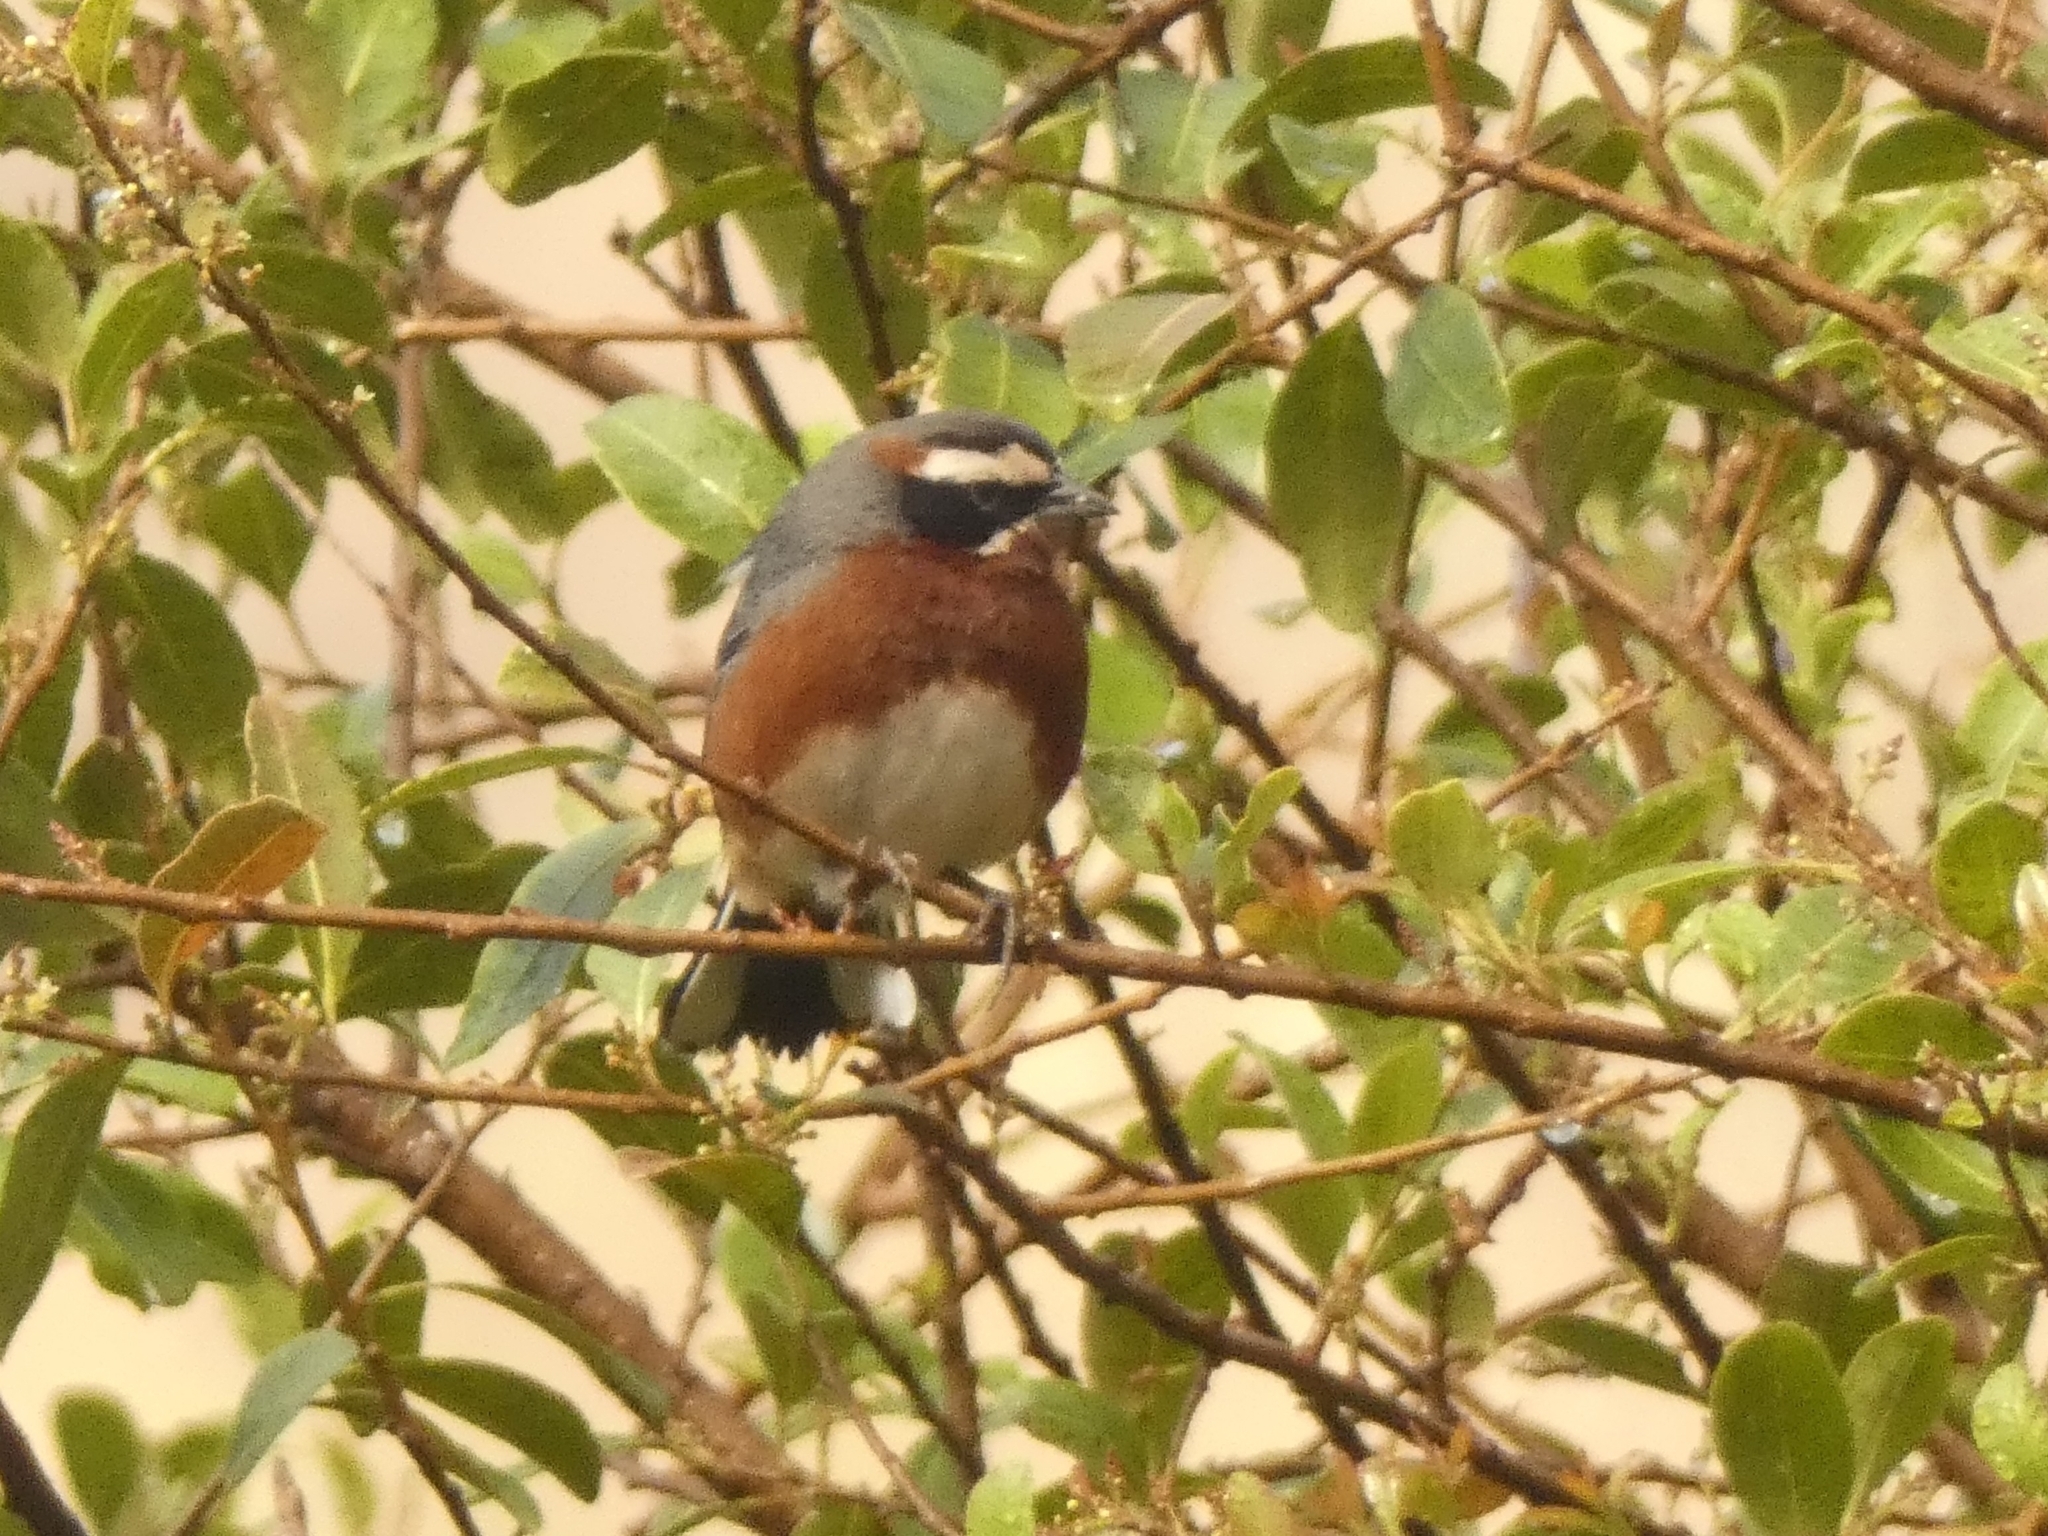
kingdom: Animalia
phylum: Chordata
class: Aves
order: Passeriformes
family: Thraupidae
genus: Poospiza
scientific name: Poospiza whitii
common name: Black-and-chestnut warbling finch
